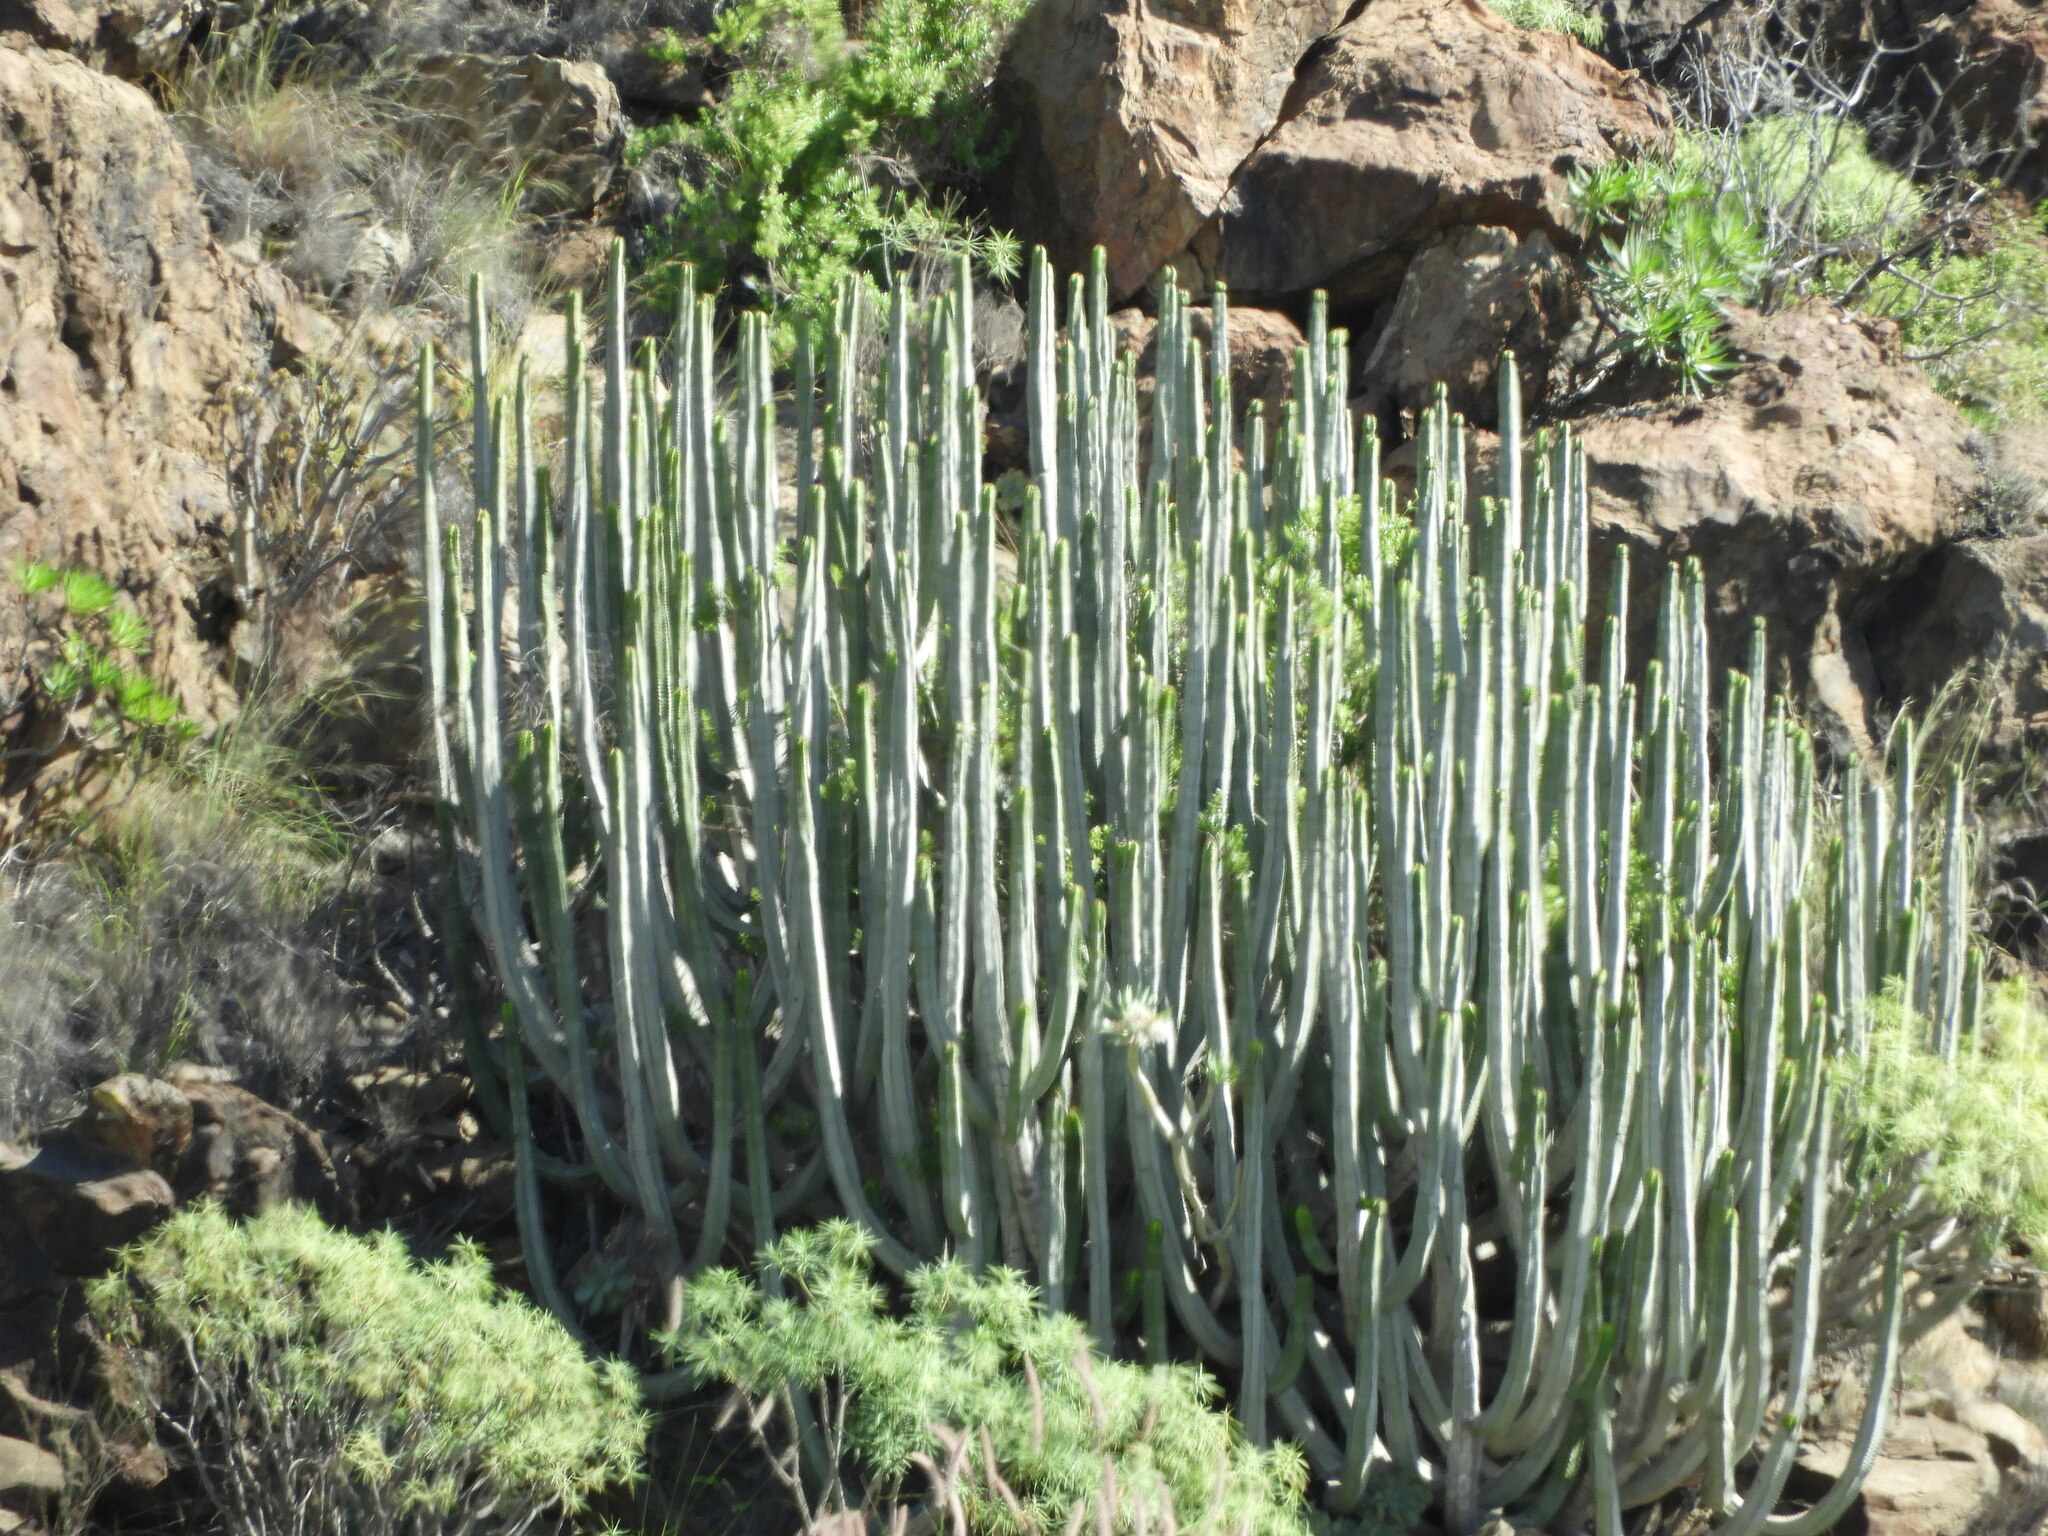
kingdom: Plantae
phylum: Tracheophyta
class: Magnoliopsida
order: Malpighiales
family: Euphorbiaceae
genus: Euphorbia
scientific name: Euphorbia canariensis
